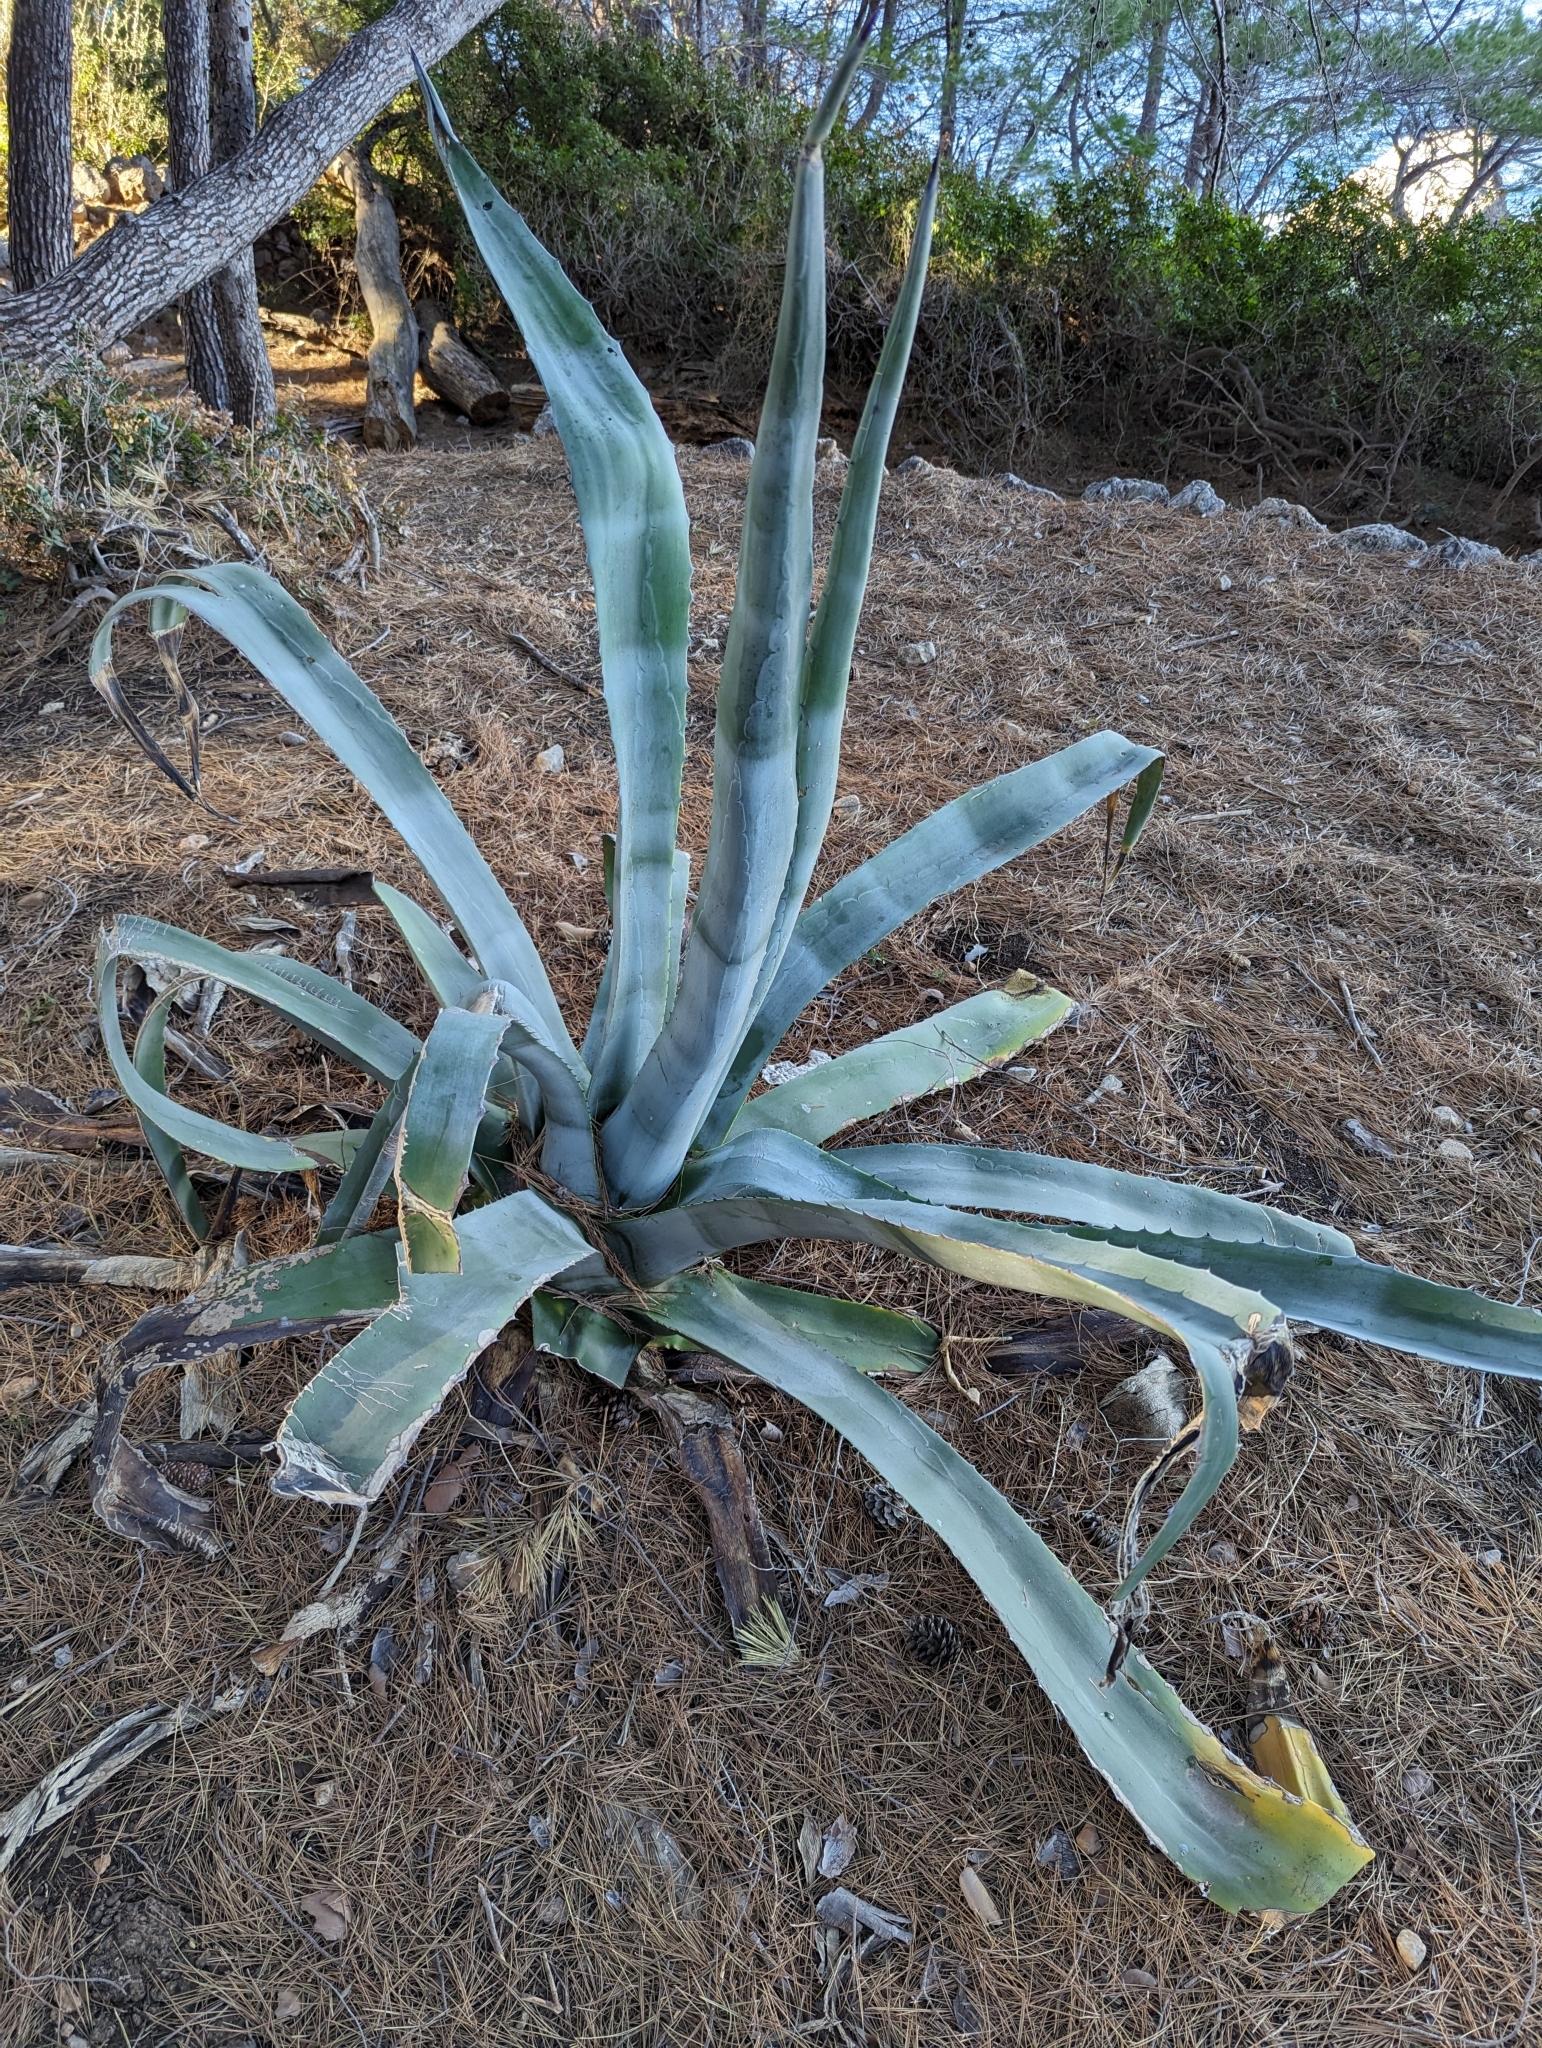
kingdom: Plantae
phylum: Tracheophyta
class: Liliopsida
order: Asparagales
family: Asparagaceae
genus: Agave
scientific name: Agave americana
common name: Centuryplant
